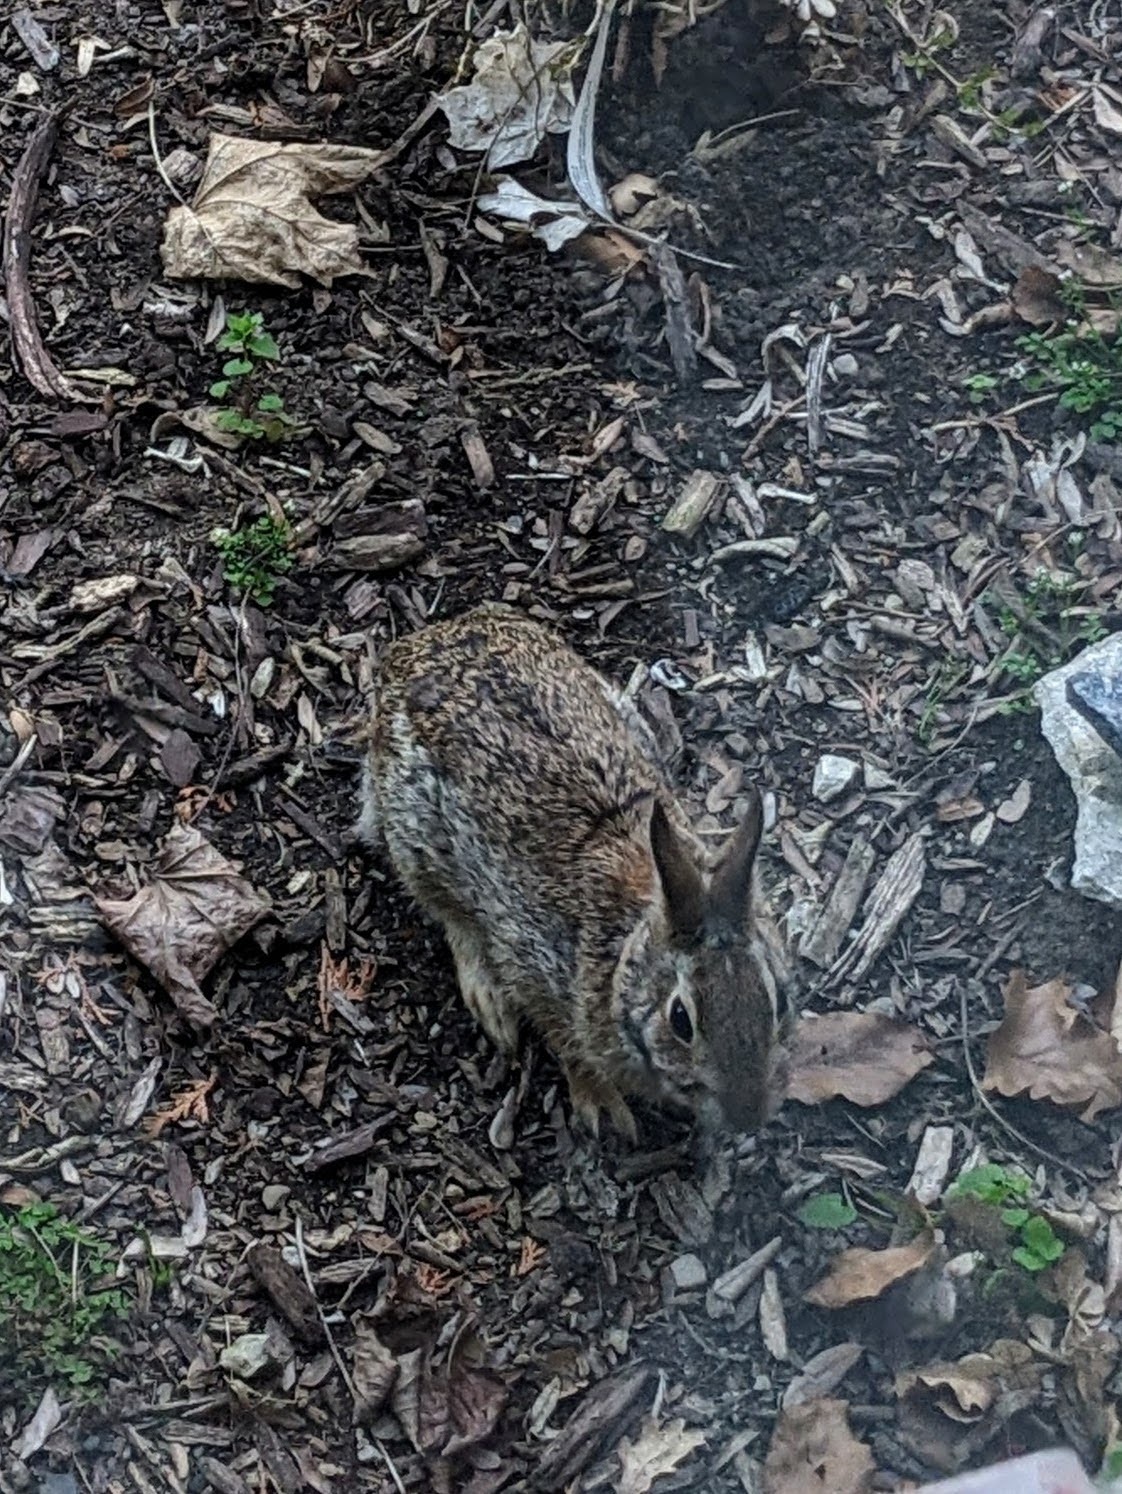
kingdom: Animalia
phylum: Chordata
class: Mammalia
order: Lagomorpha
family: Leporidae
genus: Sylvilagus
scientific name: Sylvilagus floridanus
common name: Eastern cottontail
